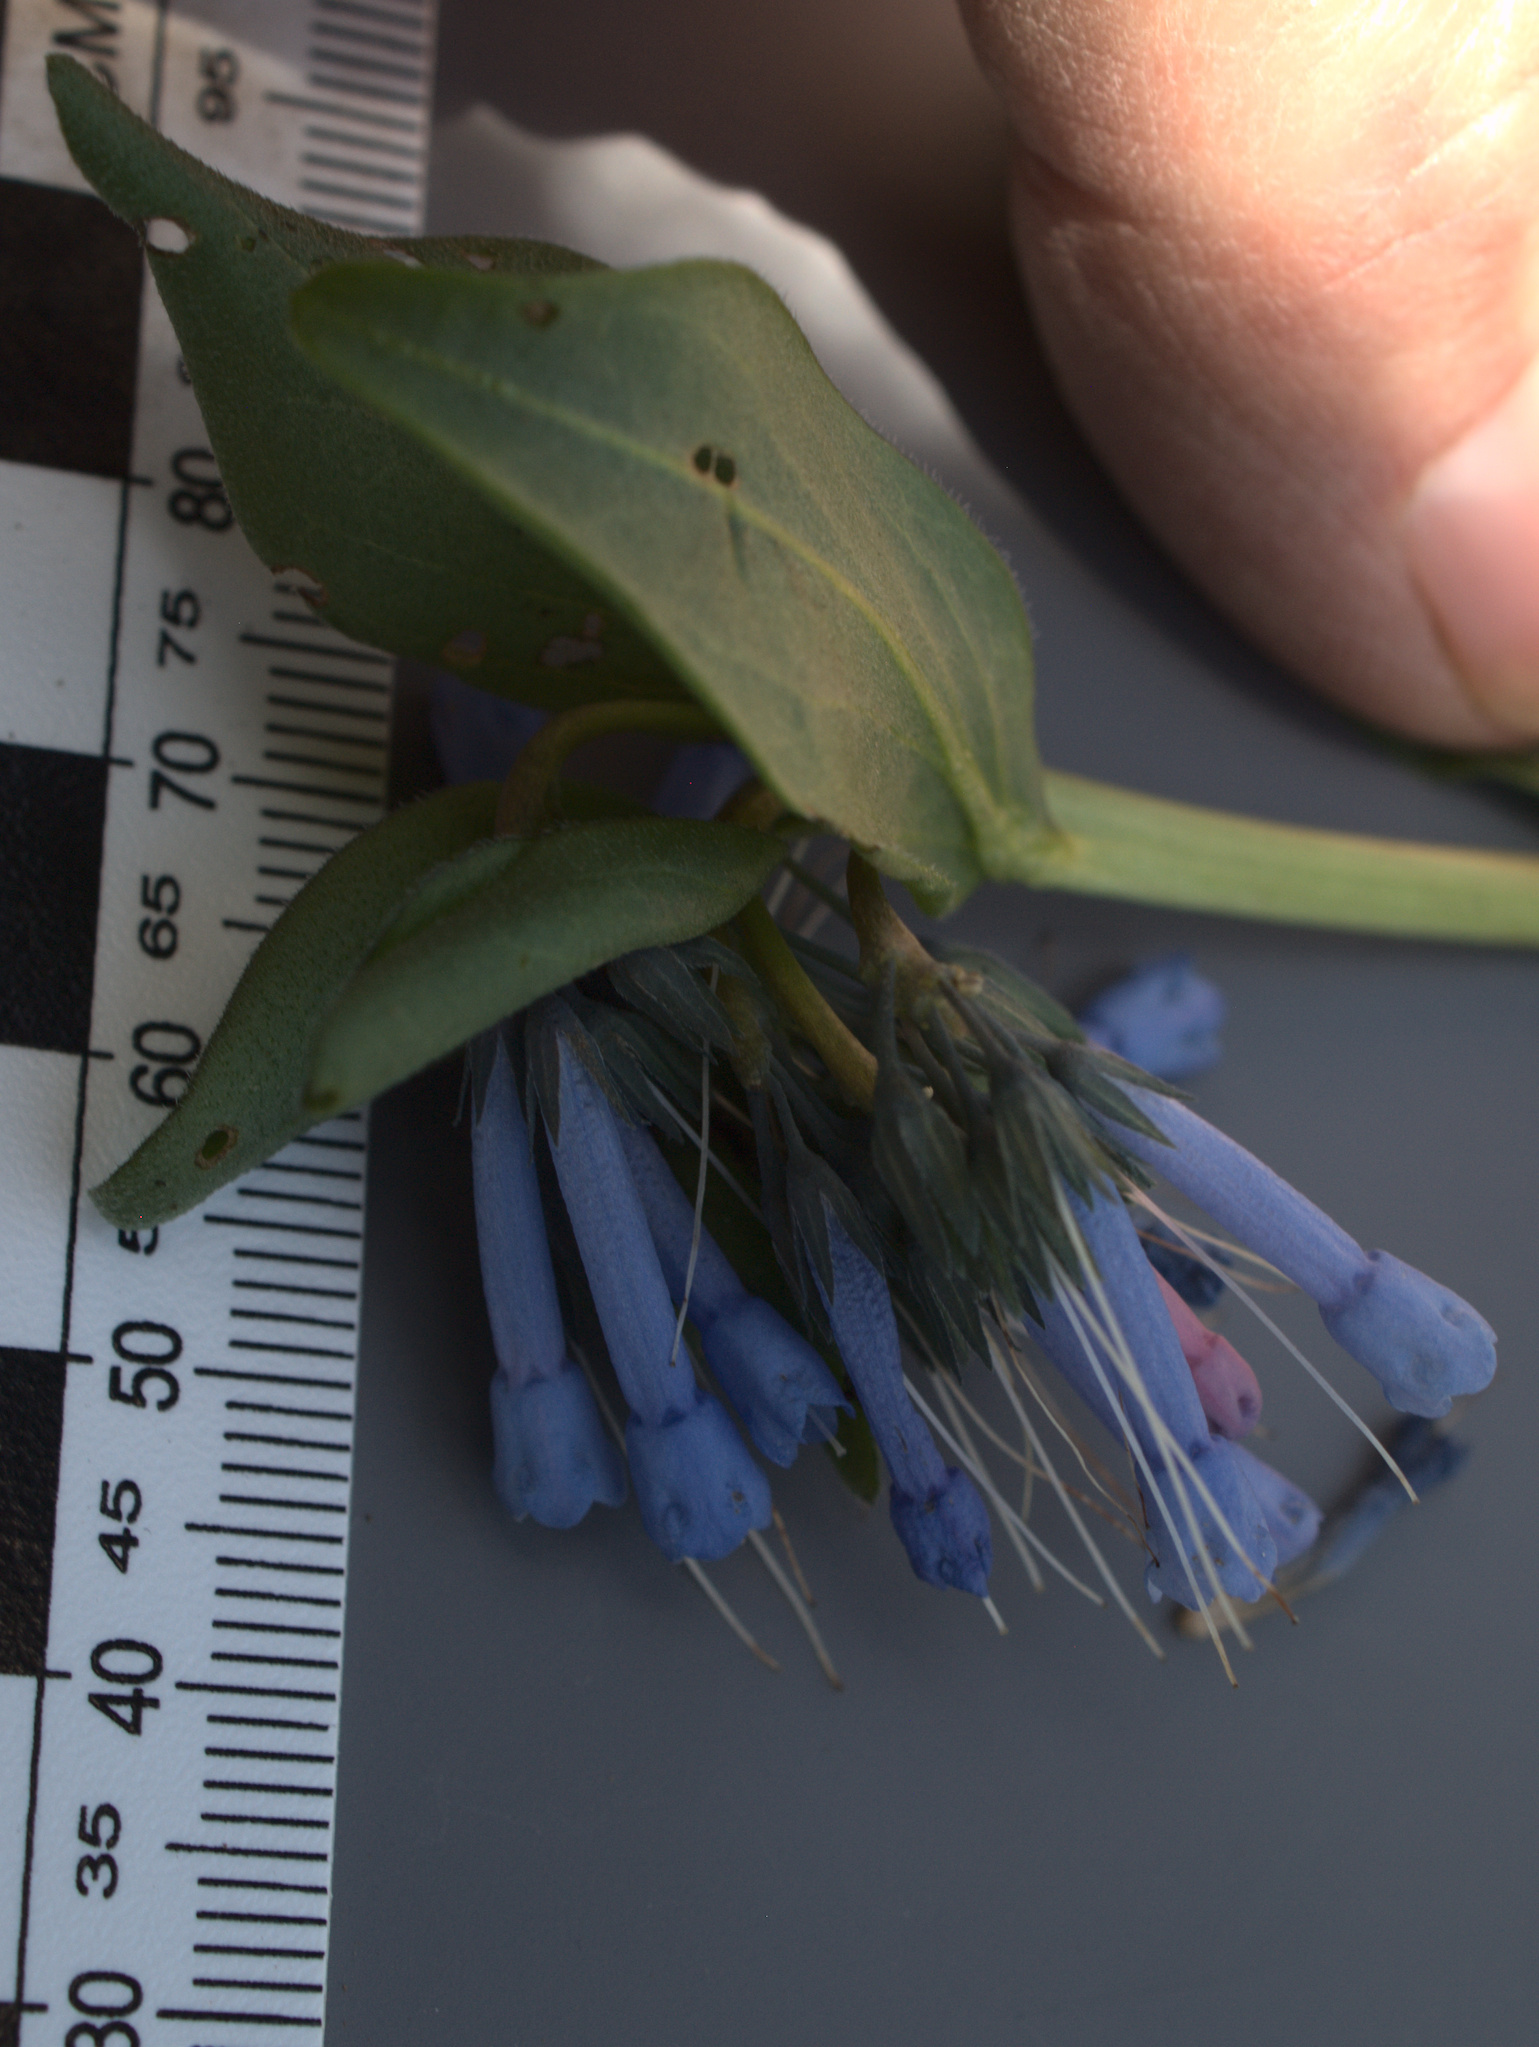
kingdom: Plantae
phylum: Tracheophyta
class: Magnoliopsida
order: Boraginales
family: Boraginaceae
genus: Mertensia
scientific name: Mertensia longiflora
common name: Large-flowered bluebells
